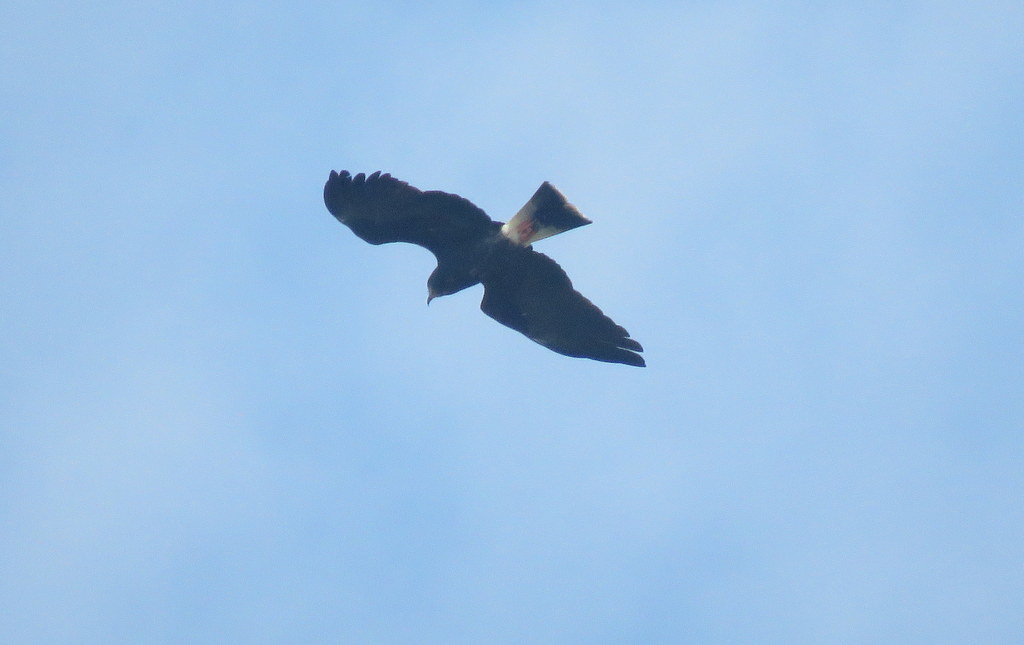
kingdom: Animalia
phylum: Chordata
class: Aves
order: Accipitriformes
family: Accipitridae
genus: Rostrhamus
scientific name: Rostrhamus sociabilis
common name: Snail kite
